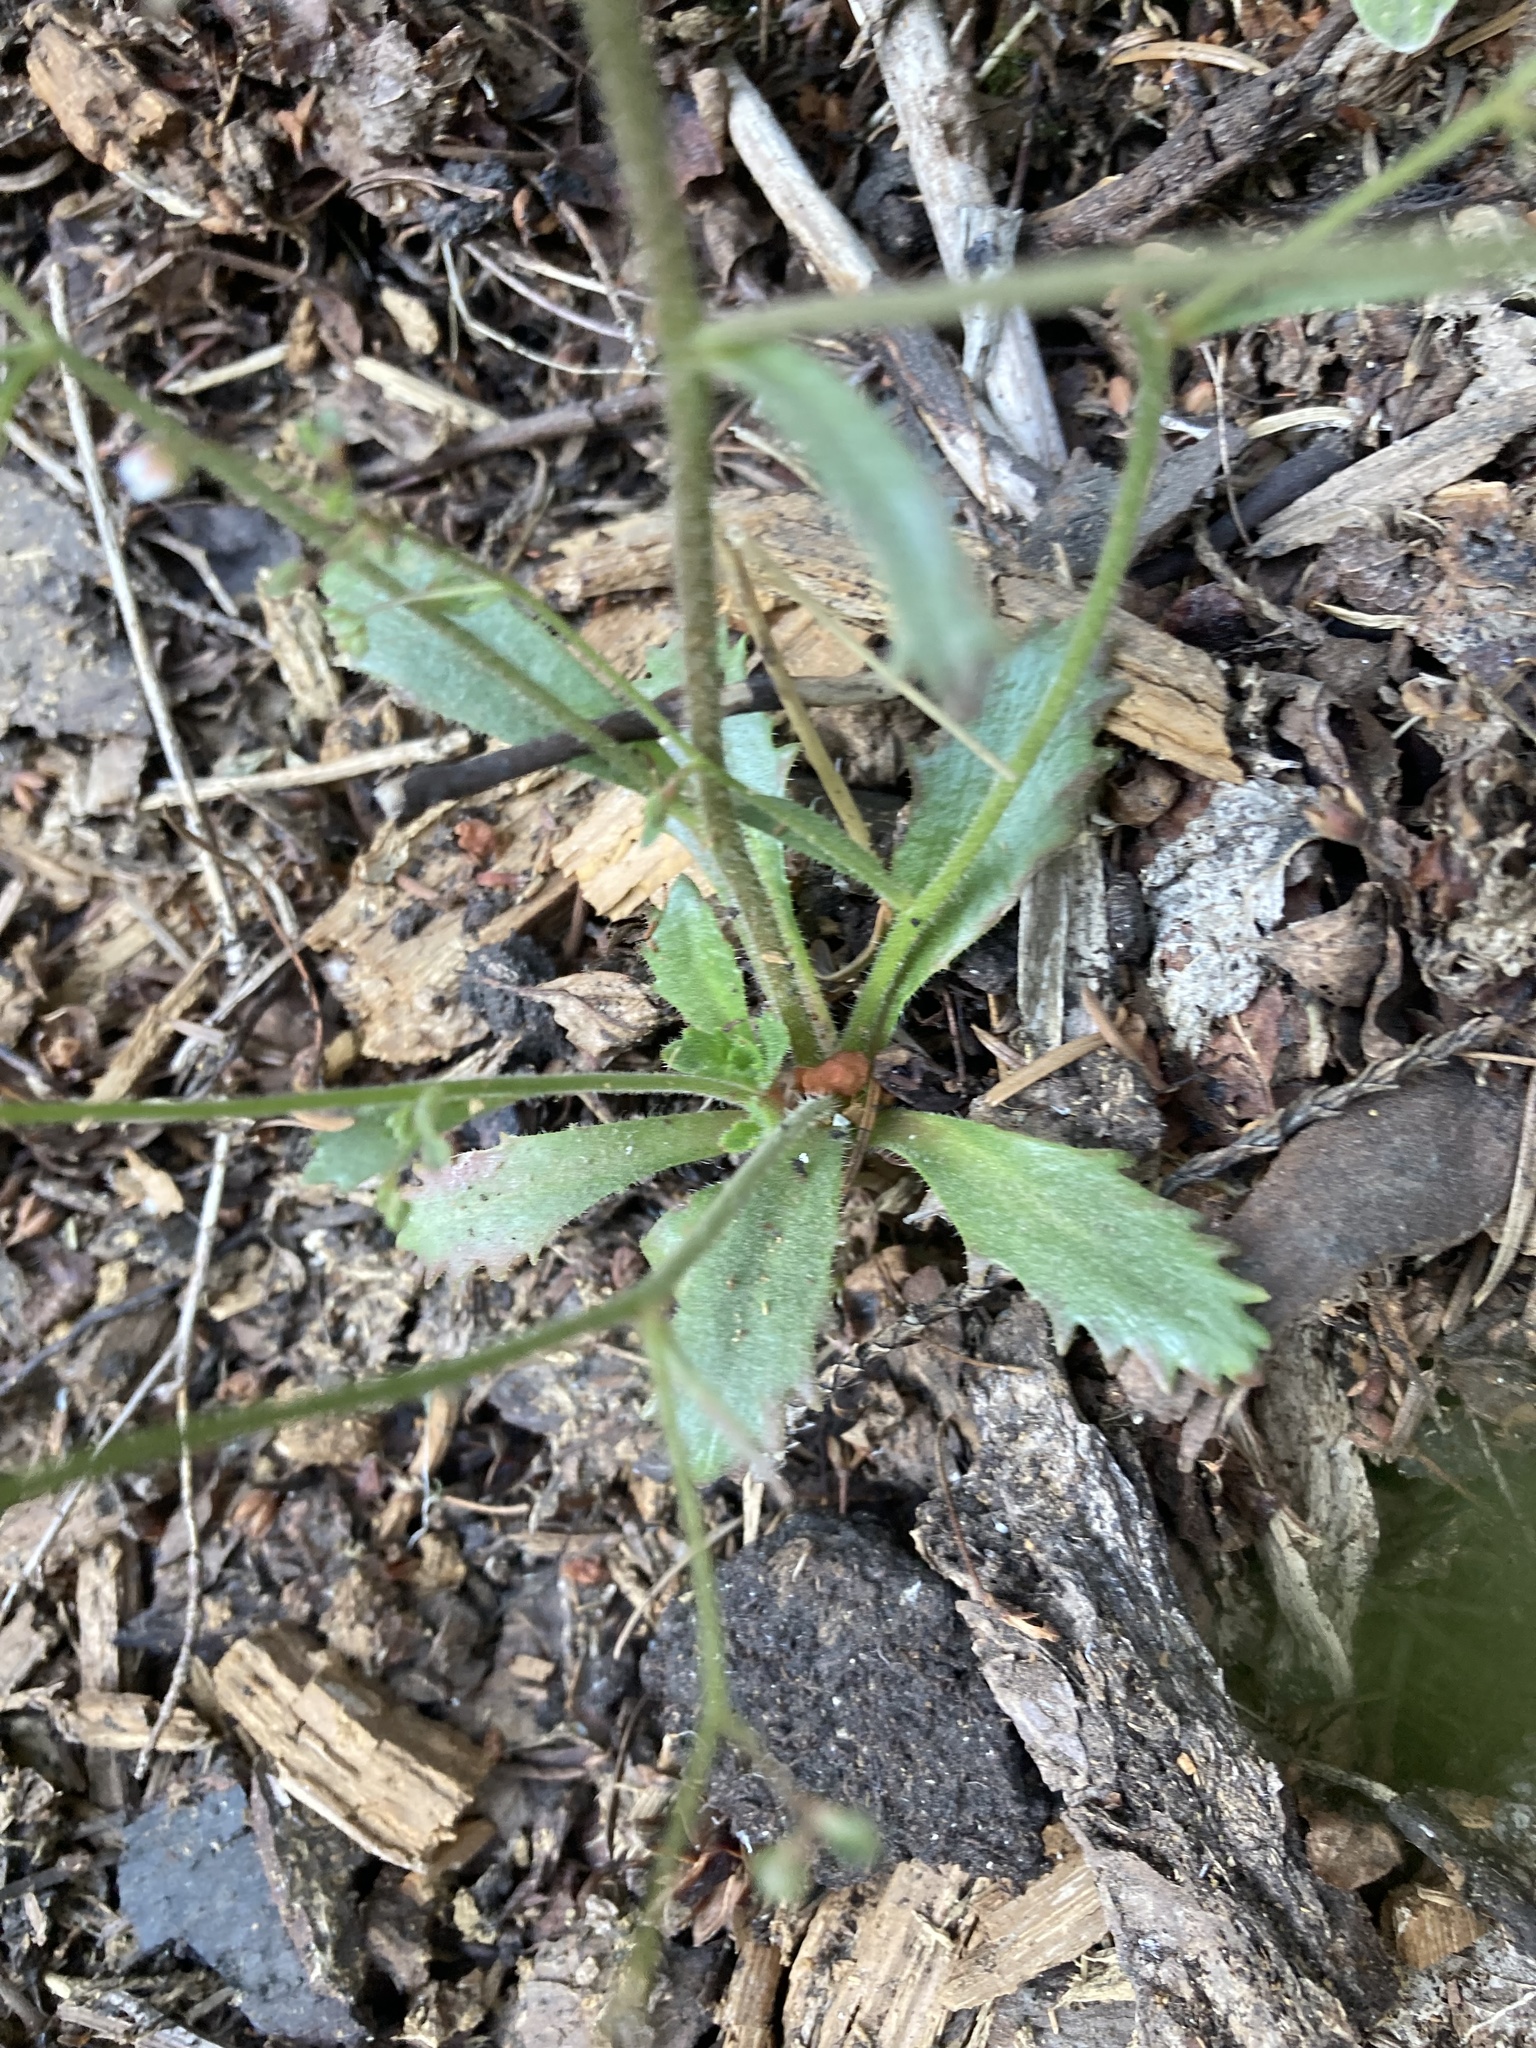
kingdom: Plantae
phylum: Tracheophyta
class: Magnoliopsida
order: Saxifragales
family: Saxifragaceae
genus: Micranthes
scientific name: Micranthes ferruginea
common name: Rusty saxifrage
